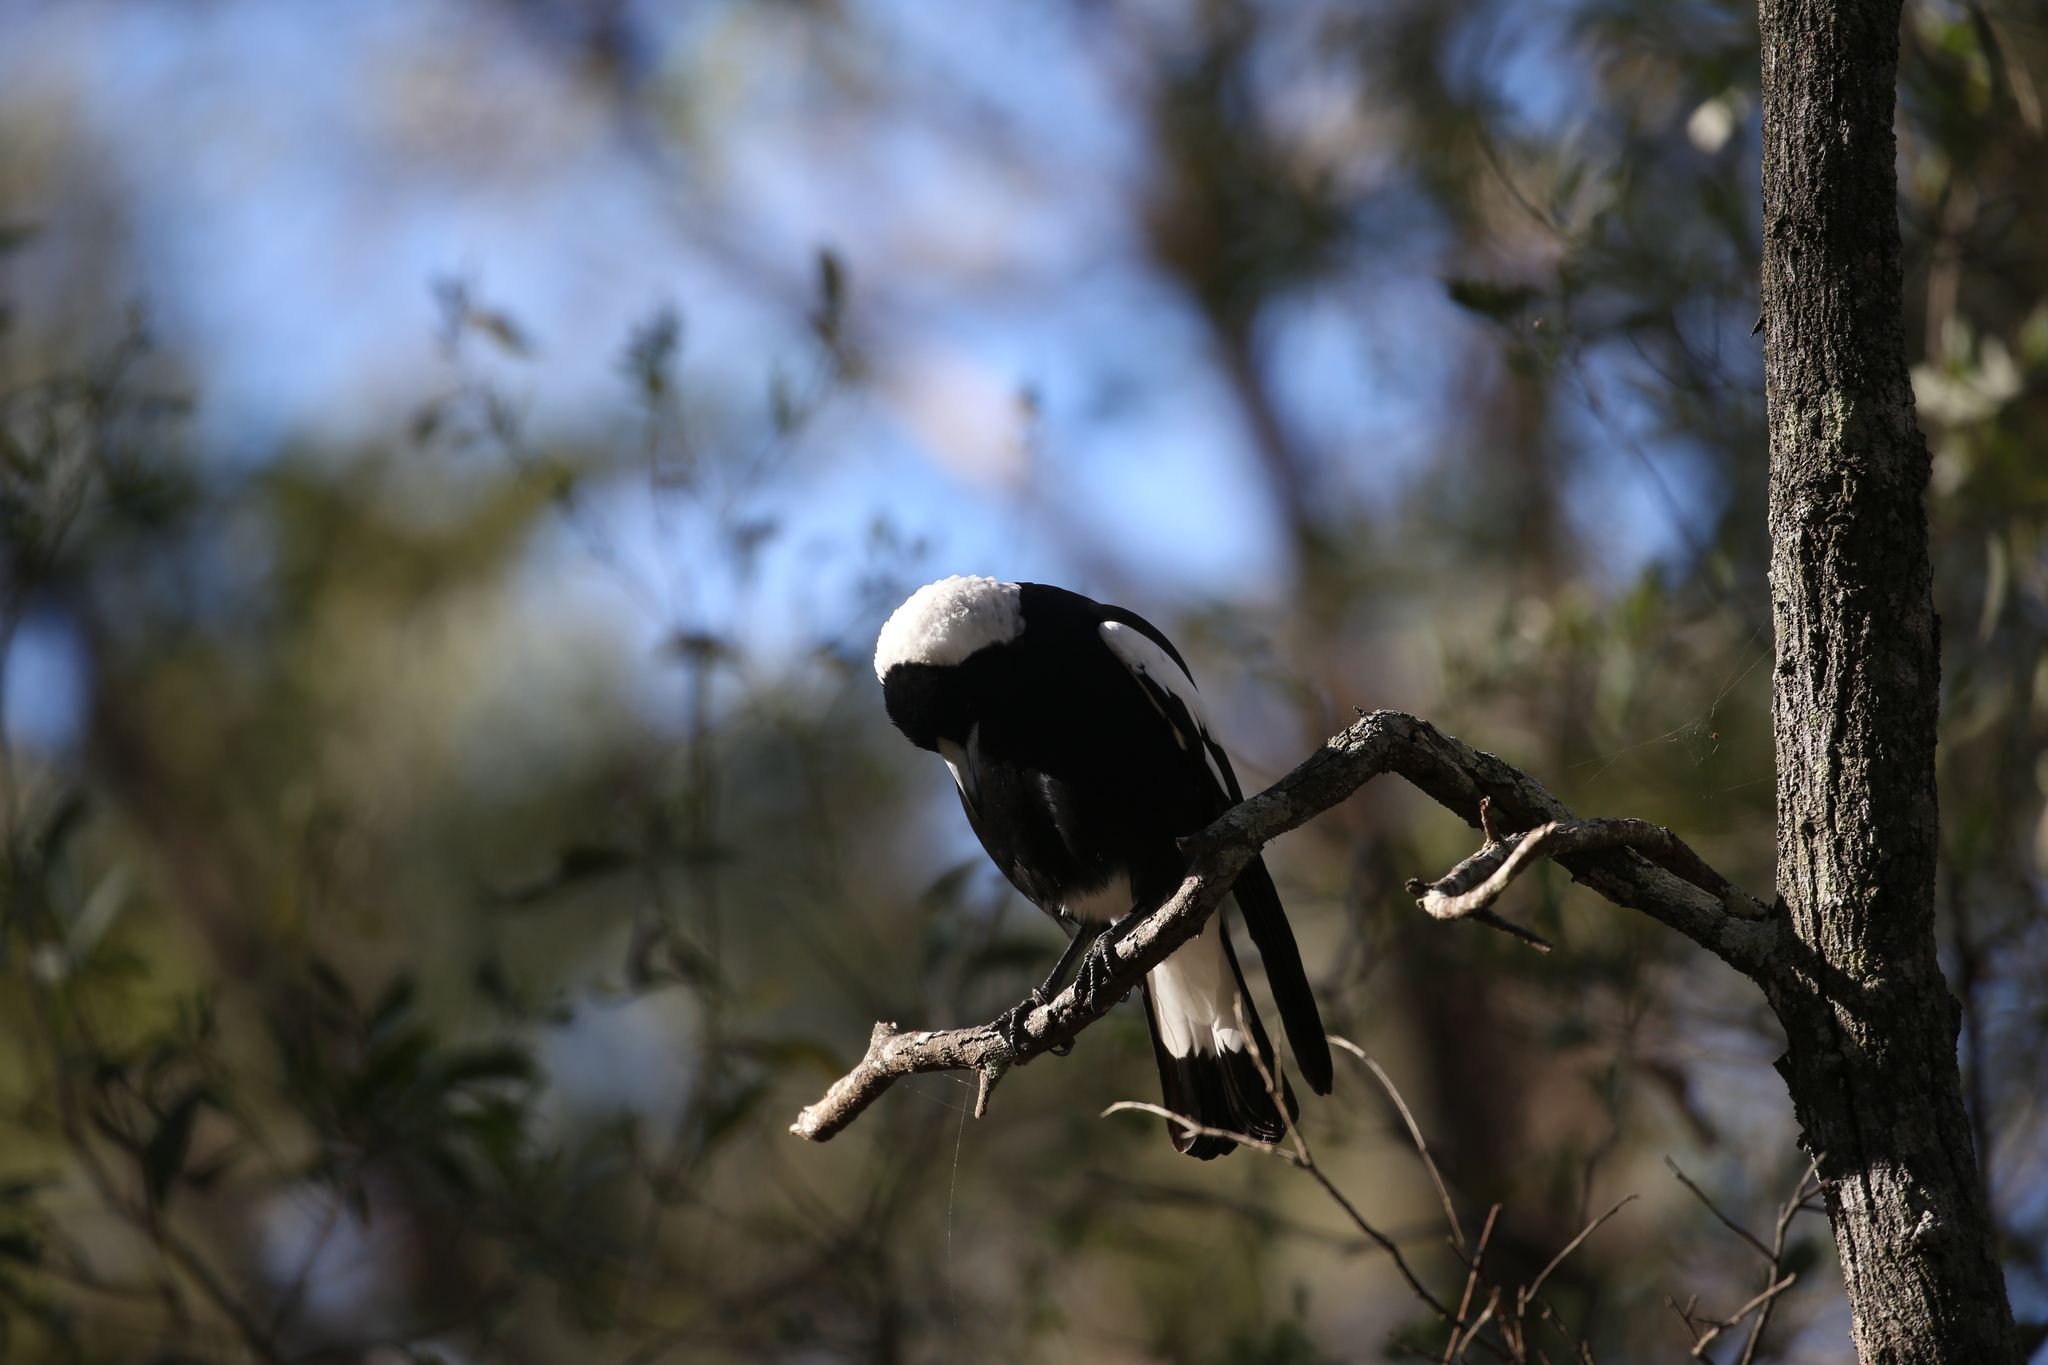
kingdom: Animalia
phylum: Chordata
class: Aves
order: Passeriformes
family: Cracticidae
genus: Gymnorhina
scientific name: Gymnorhina tibicen
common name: Australian magpie
